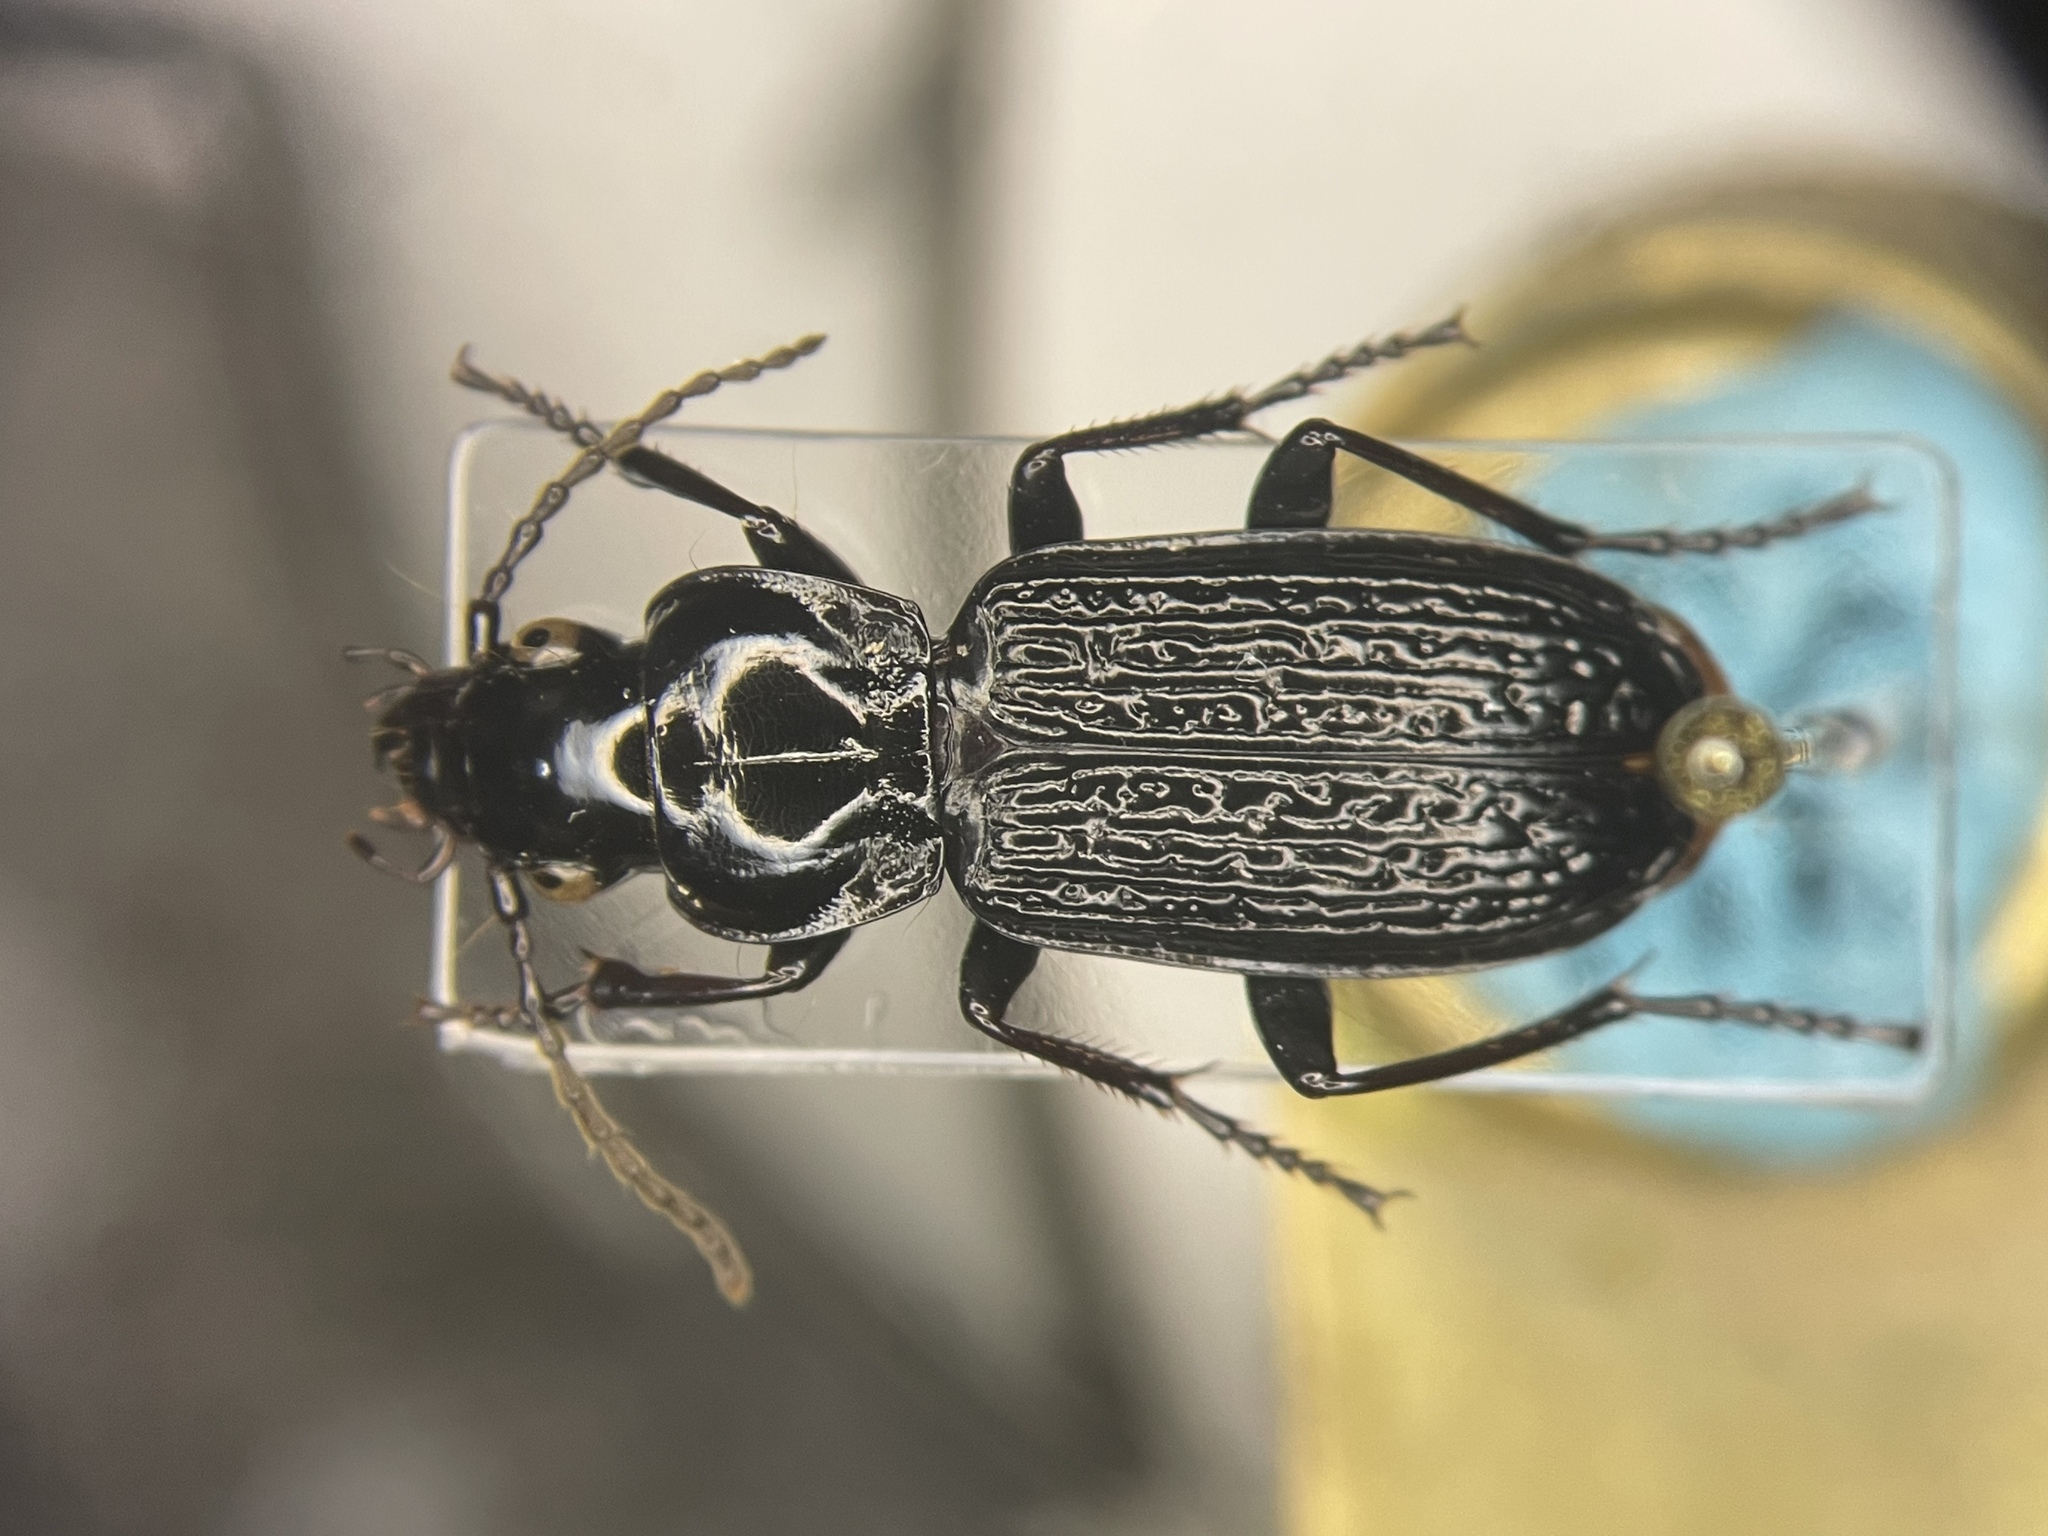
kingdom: Animalia
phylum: Arthropoda
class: Insecta
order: Coleoptera
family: Carabidae
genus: Pterostichus
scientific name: Pterostichus punctatissimus
